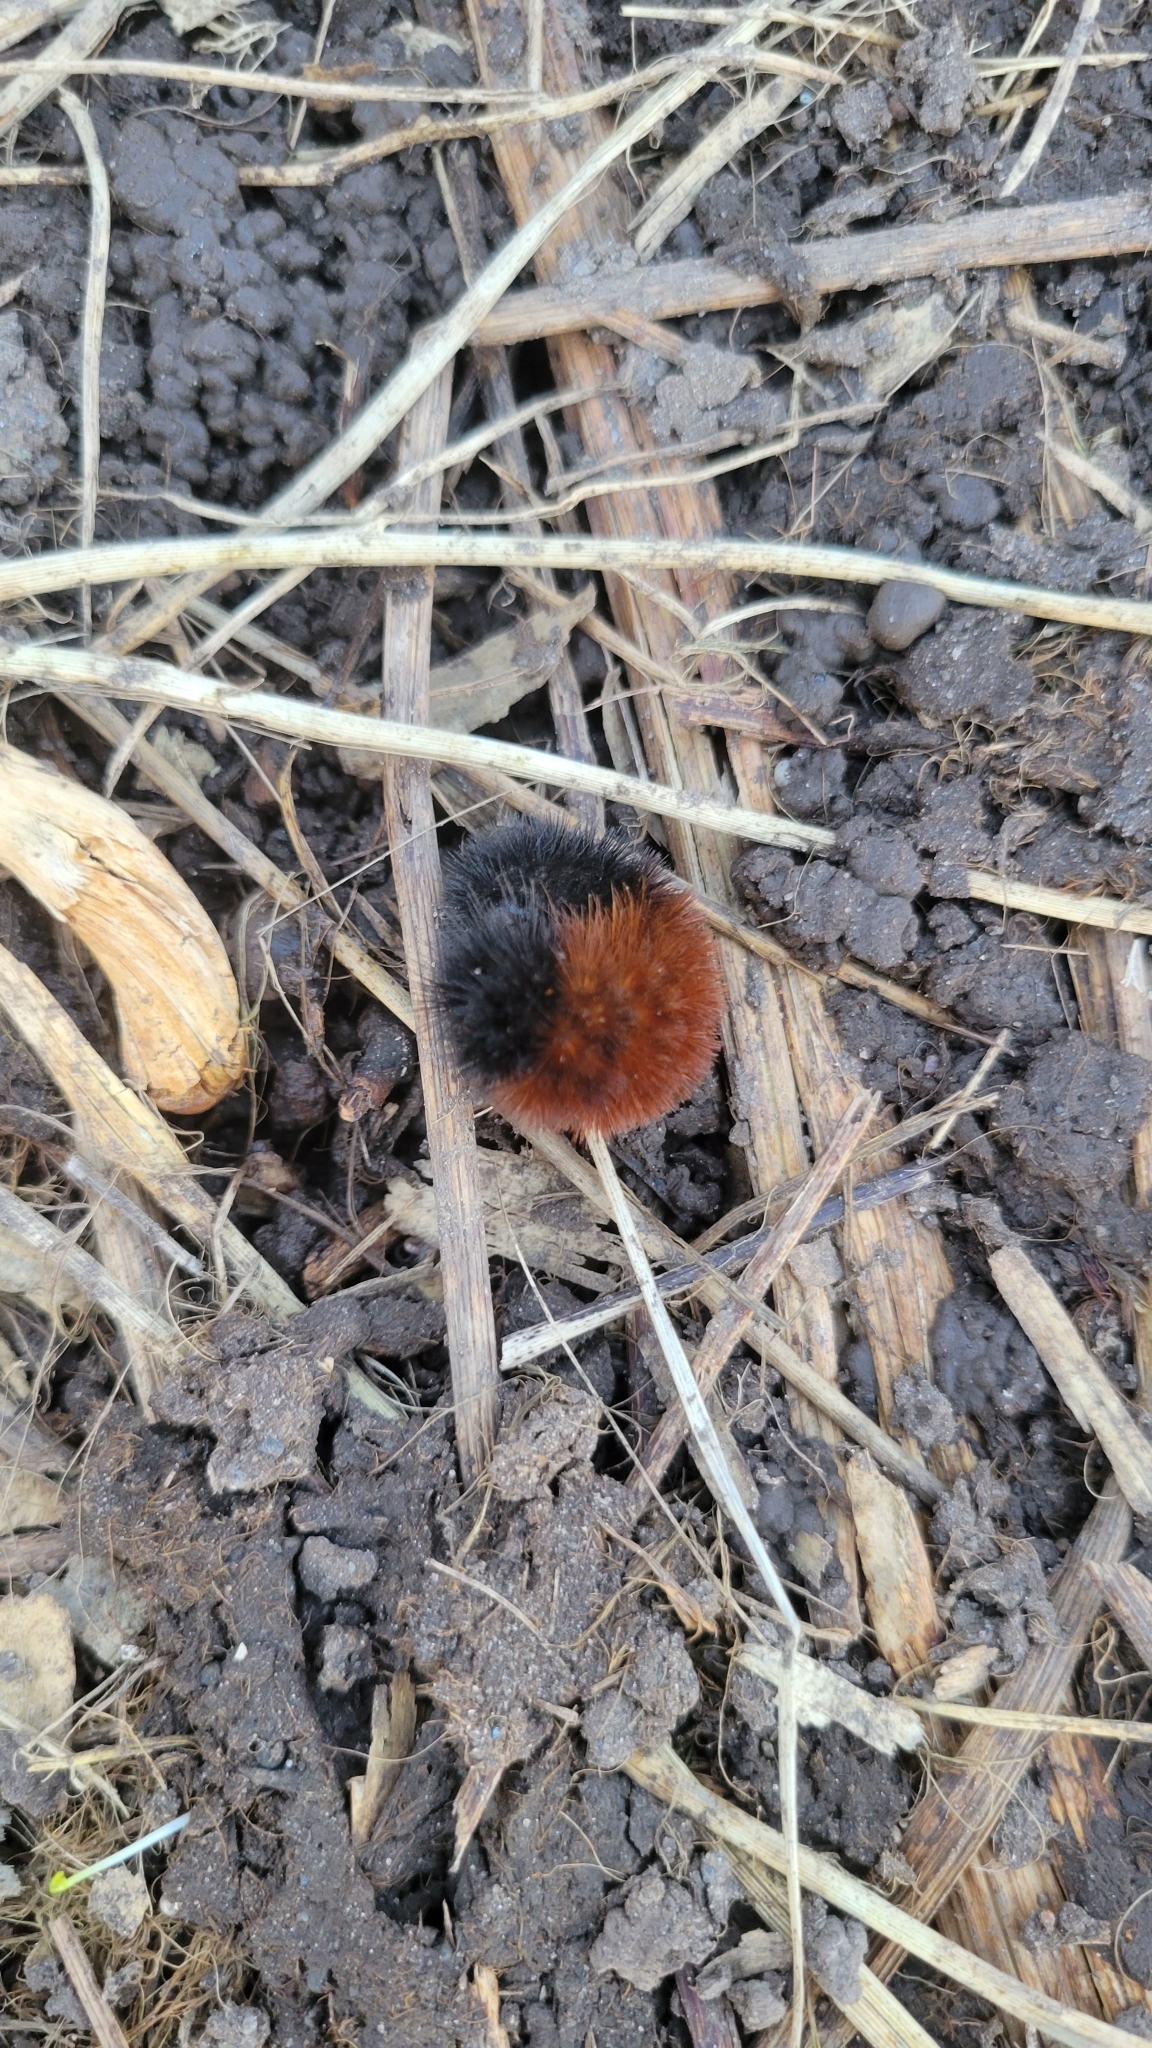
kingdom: Animalia
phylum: Arthropoda
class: Insecta
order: Lepidoptera
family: Erebidae
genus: Pyrrharctia
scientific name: Pyrrharctia isabella
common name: Isabella tiger moth
